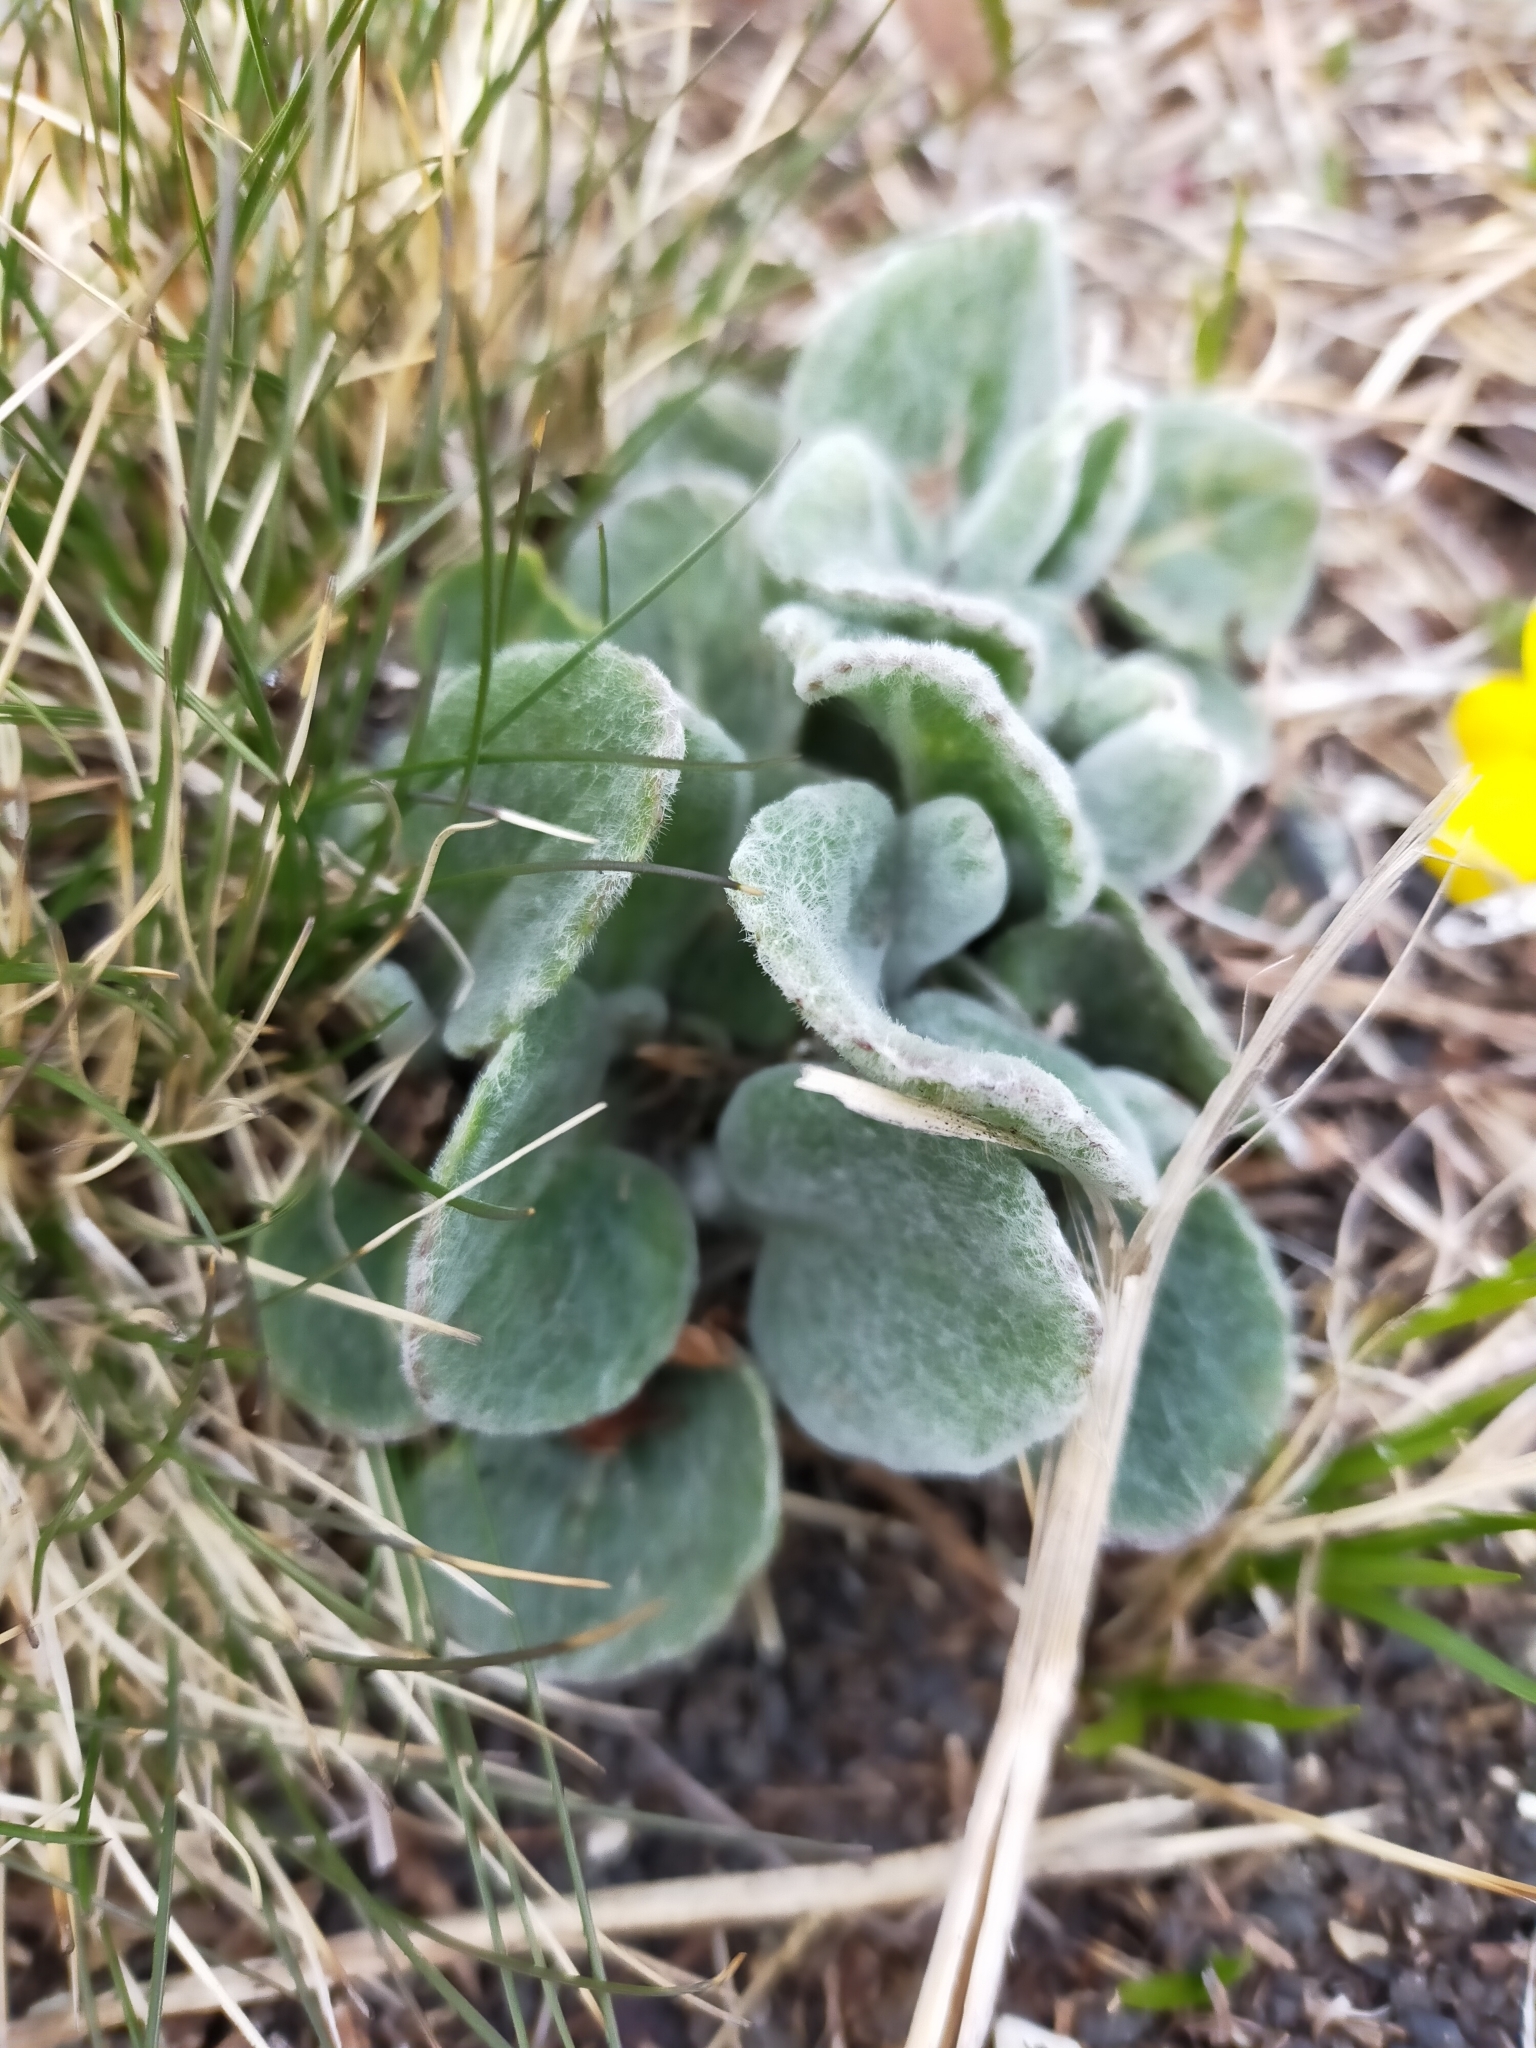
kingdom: Plantae
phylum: Tracheophyta
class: Magnoliopsida
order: Asterales
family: Asteraceae
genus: Tephroseris
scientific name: Tephroseris subscaposa
